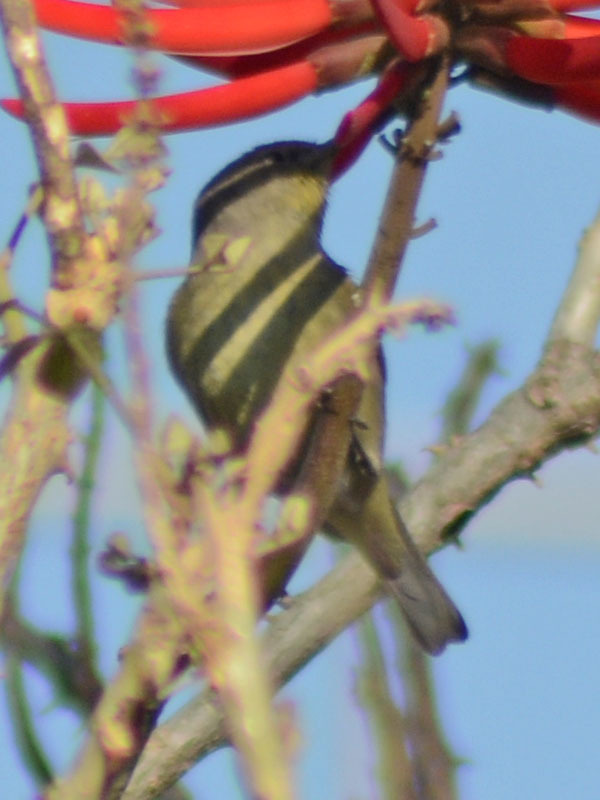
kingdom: Animalia
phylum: Chordata
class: Aves
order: Passeriformes
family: Parulidae
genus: Leiothlypis
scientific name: Leiothlypis celata
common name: Orange-crowned warbler
